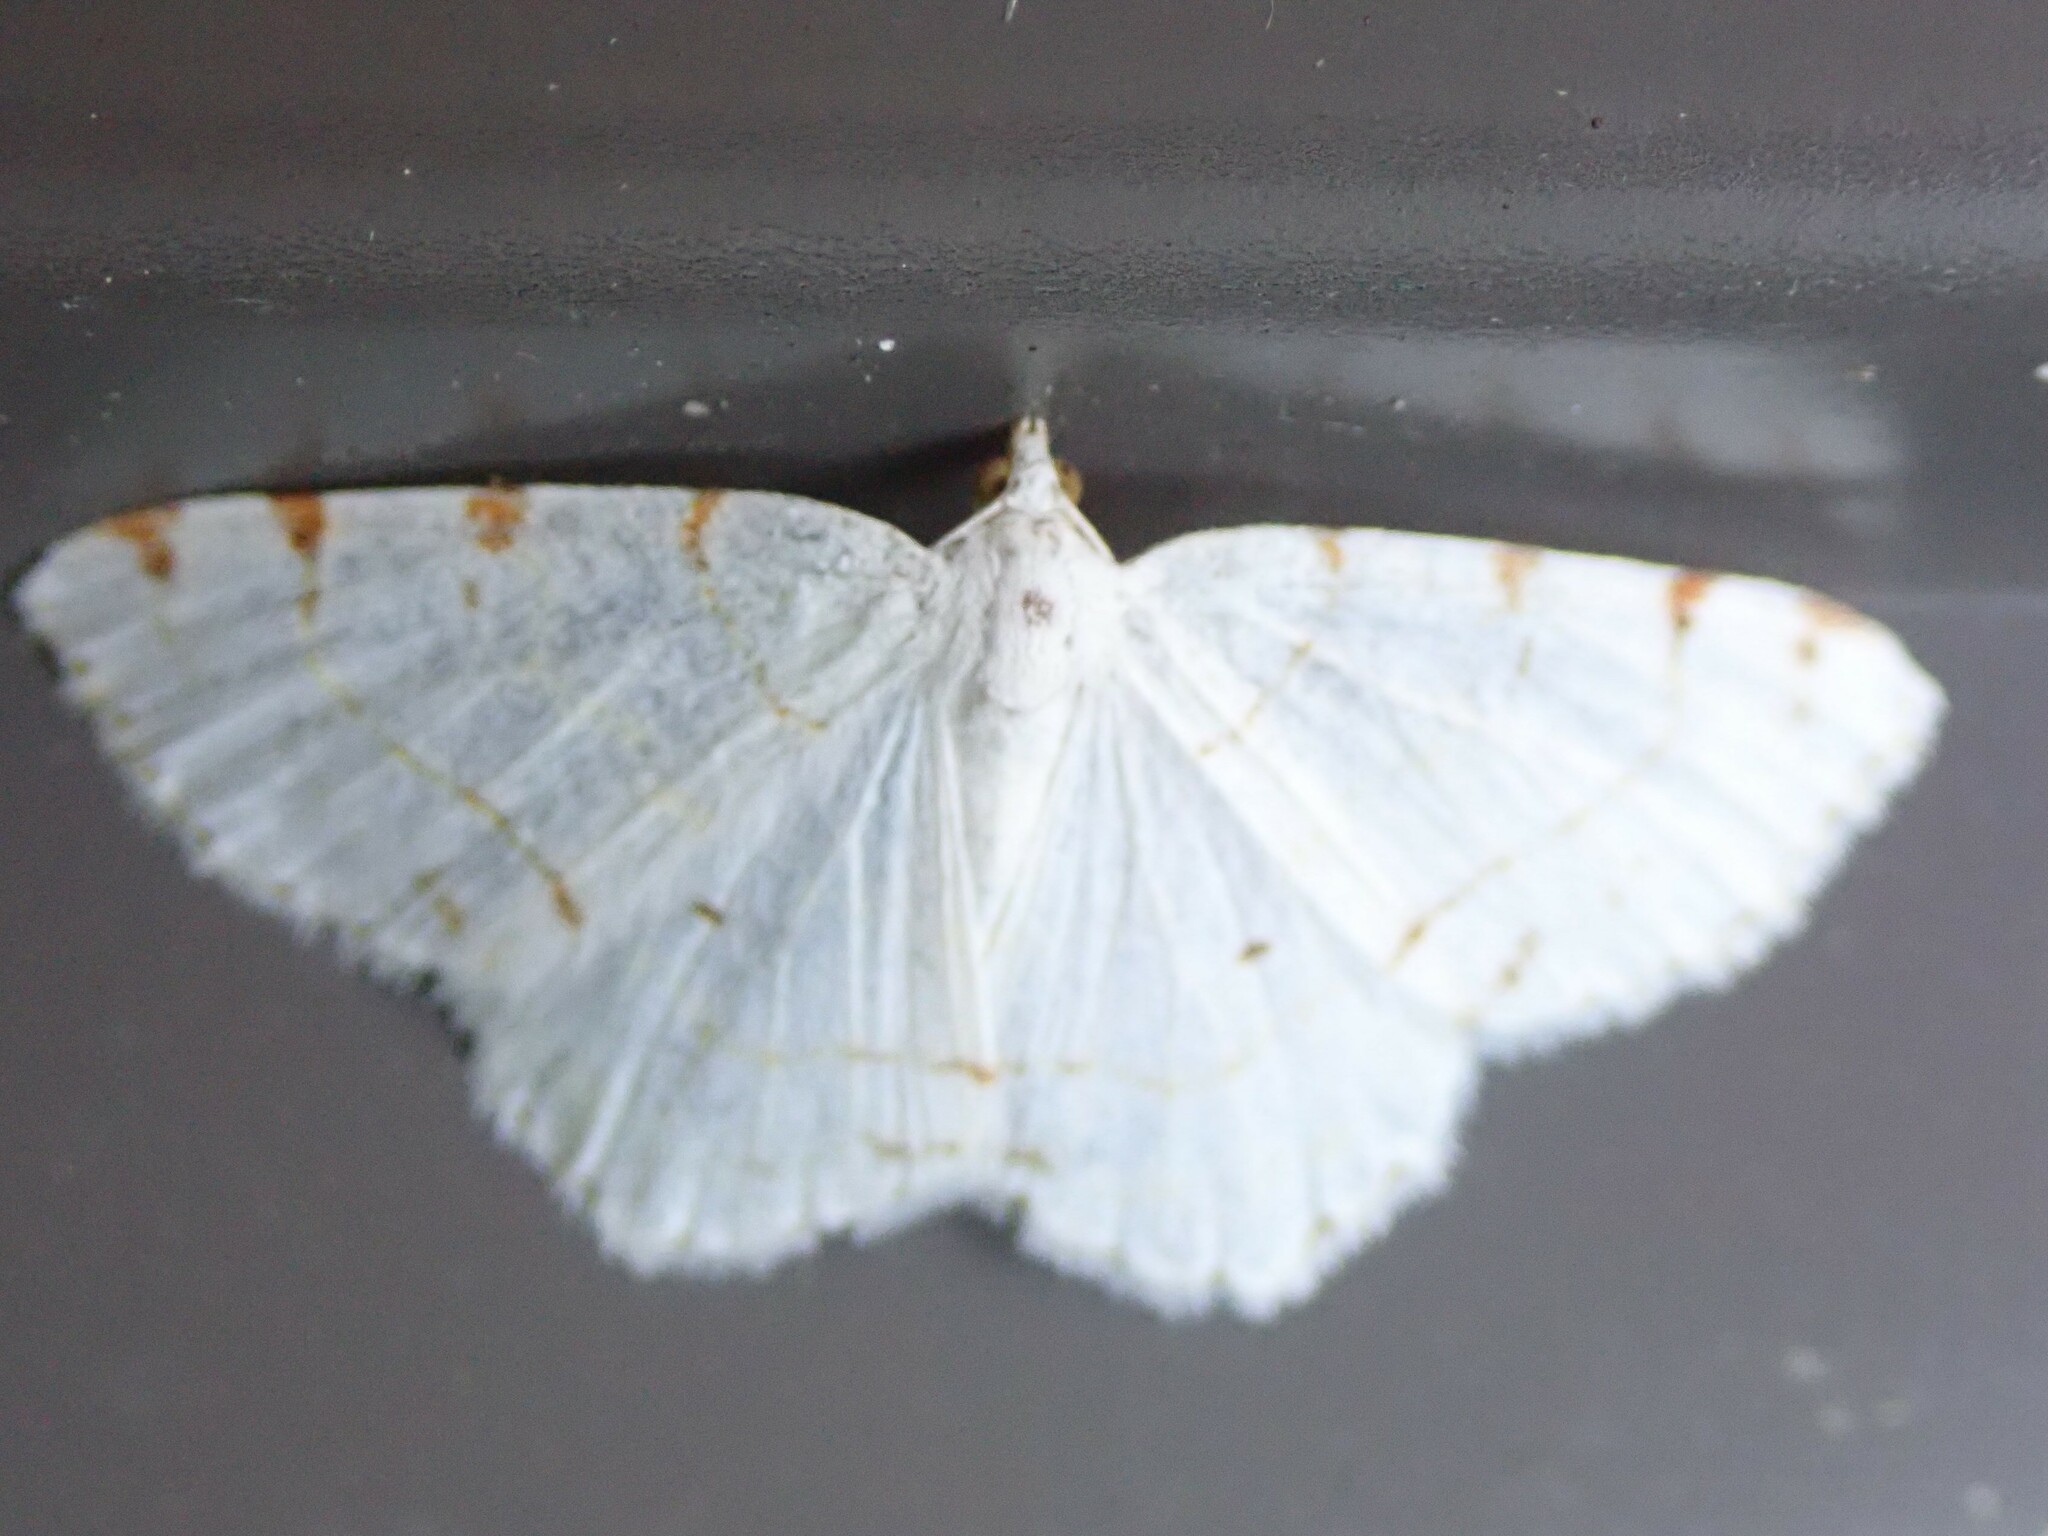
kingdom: Animalia
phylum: Arthropoda
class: Insecta
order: Lepidoptera
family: Geometridae
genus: Macaria
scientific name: Macaria pustularia
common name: Lesser maple spanworm moth
